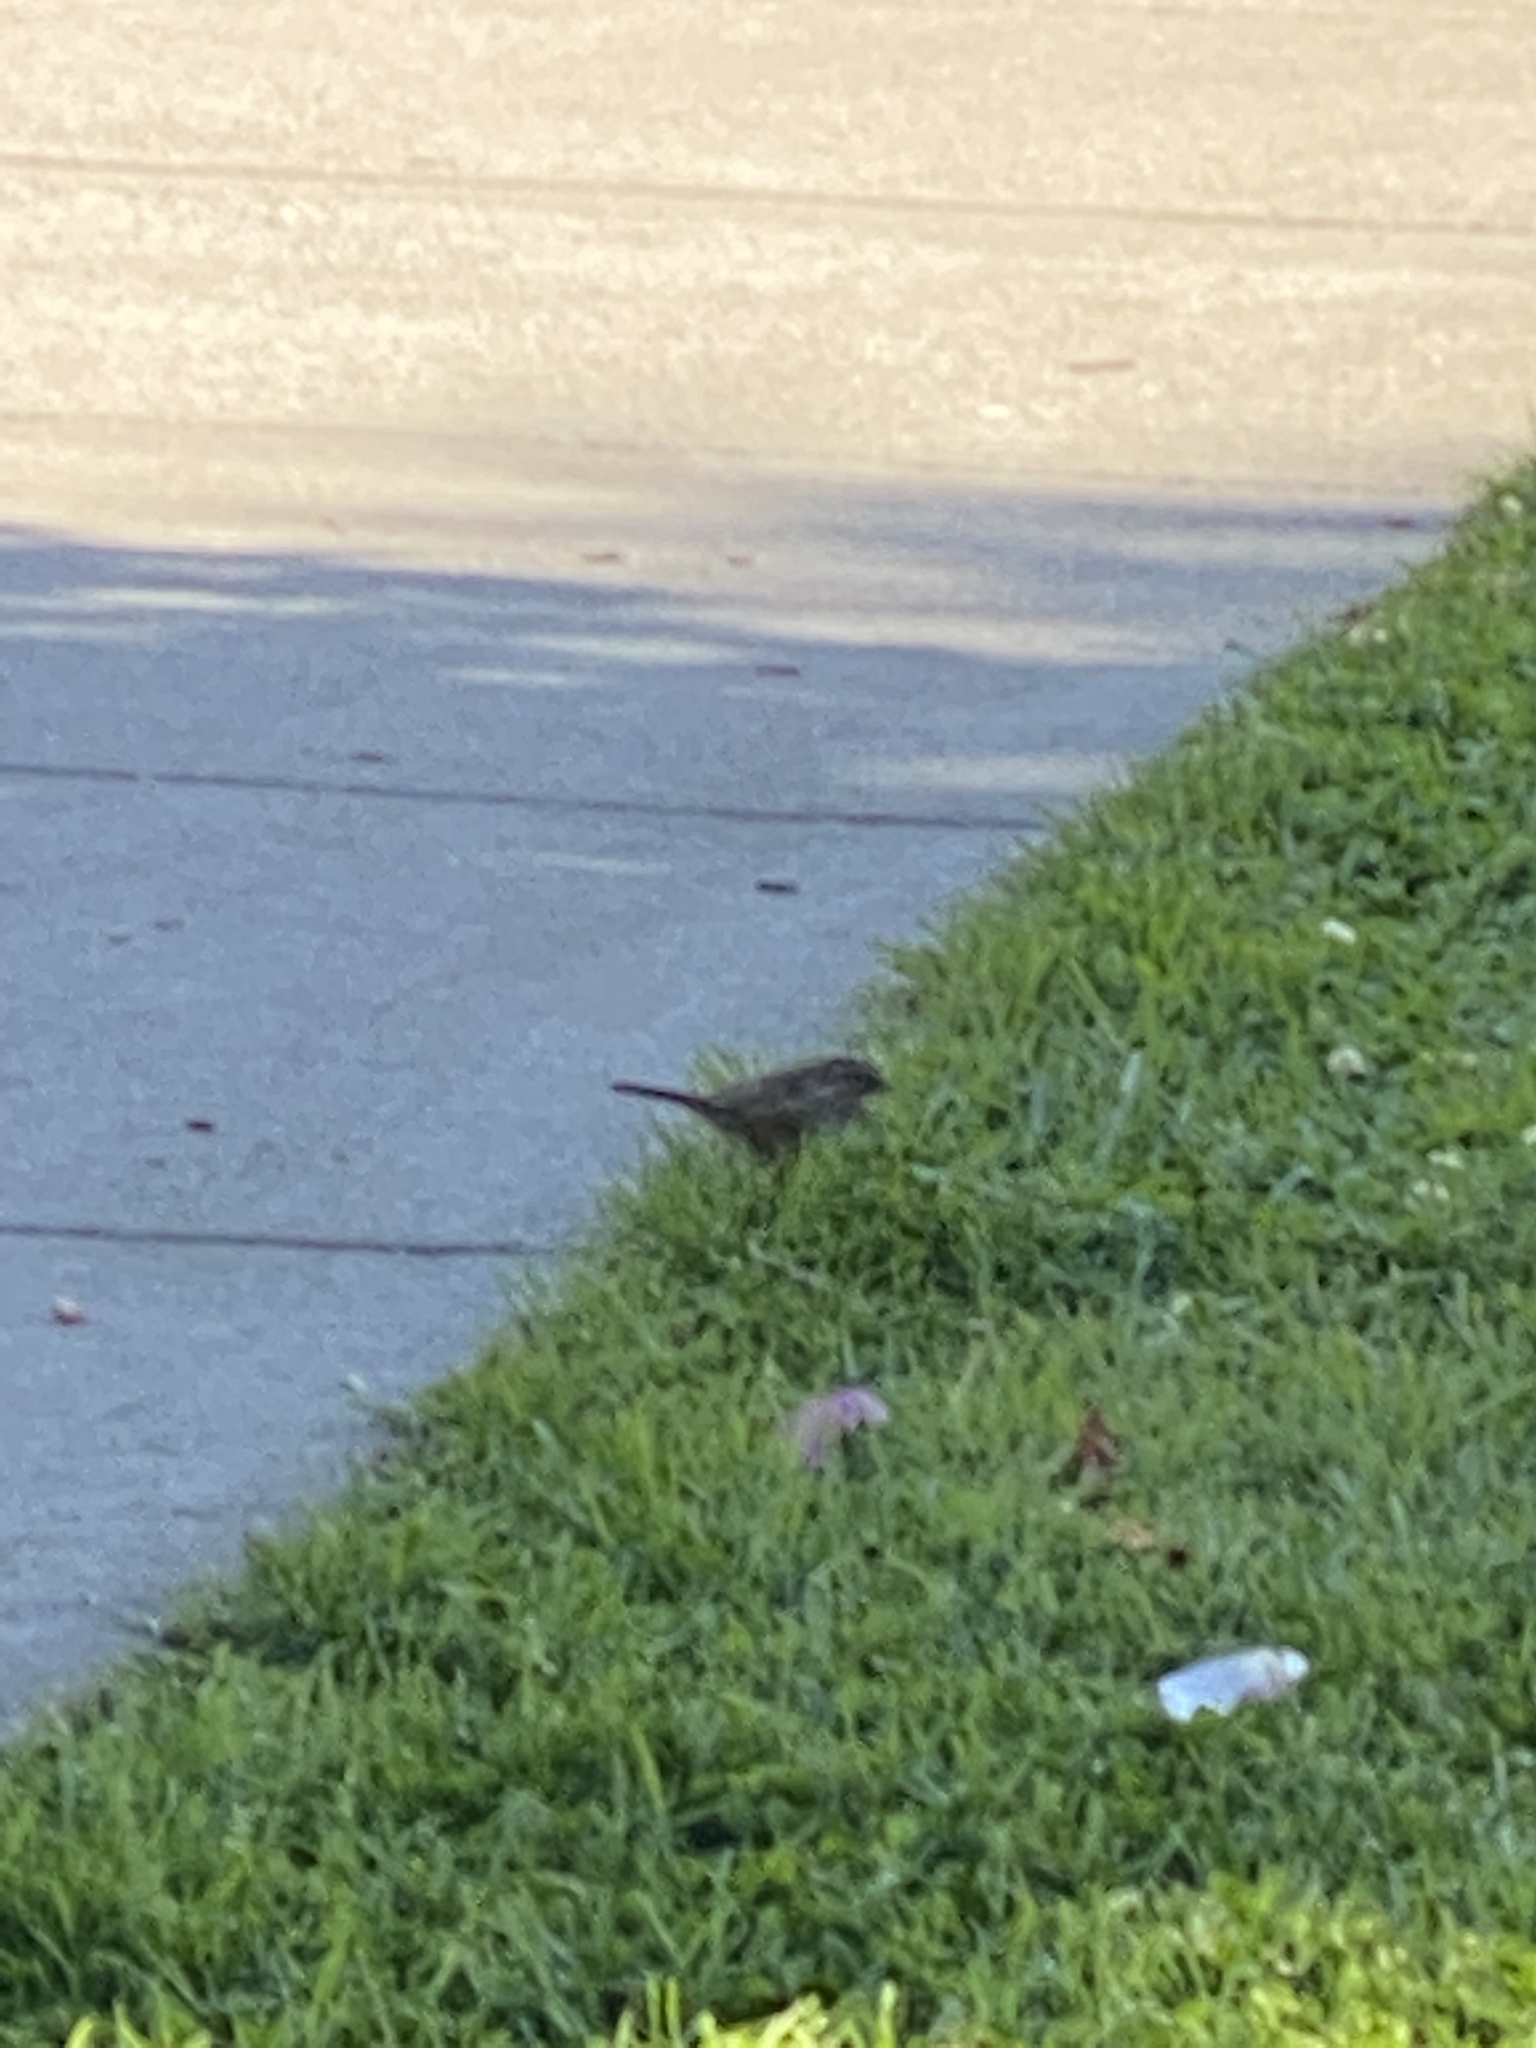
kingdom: Animalia
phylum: Chordata
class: Aves
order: Passeriformes
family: Passerellidae
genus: Melospiza
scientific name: Melospiza melodia
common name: Song sparrow
